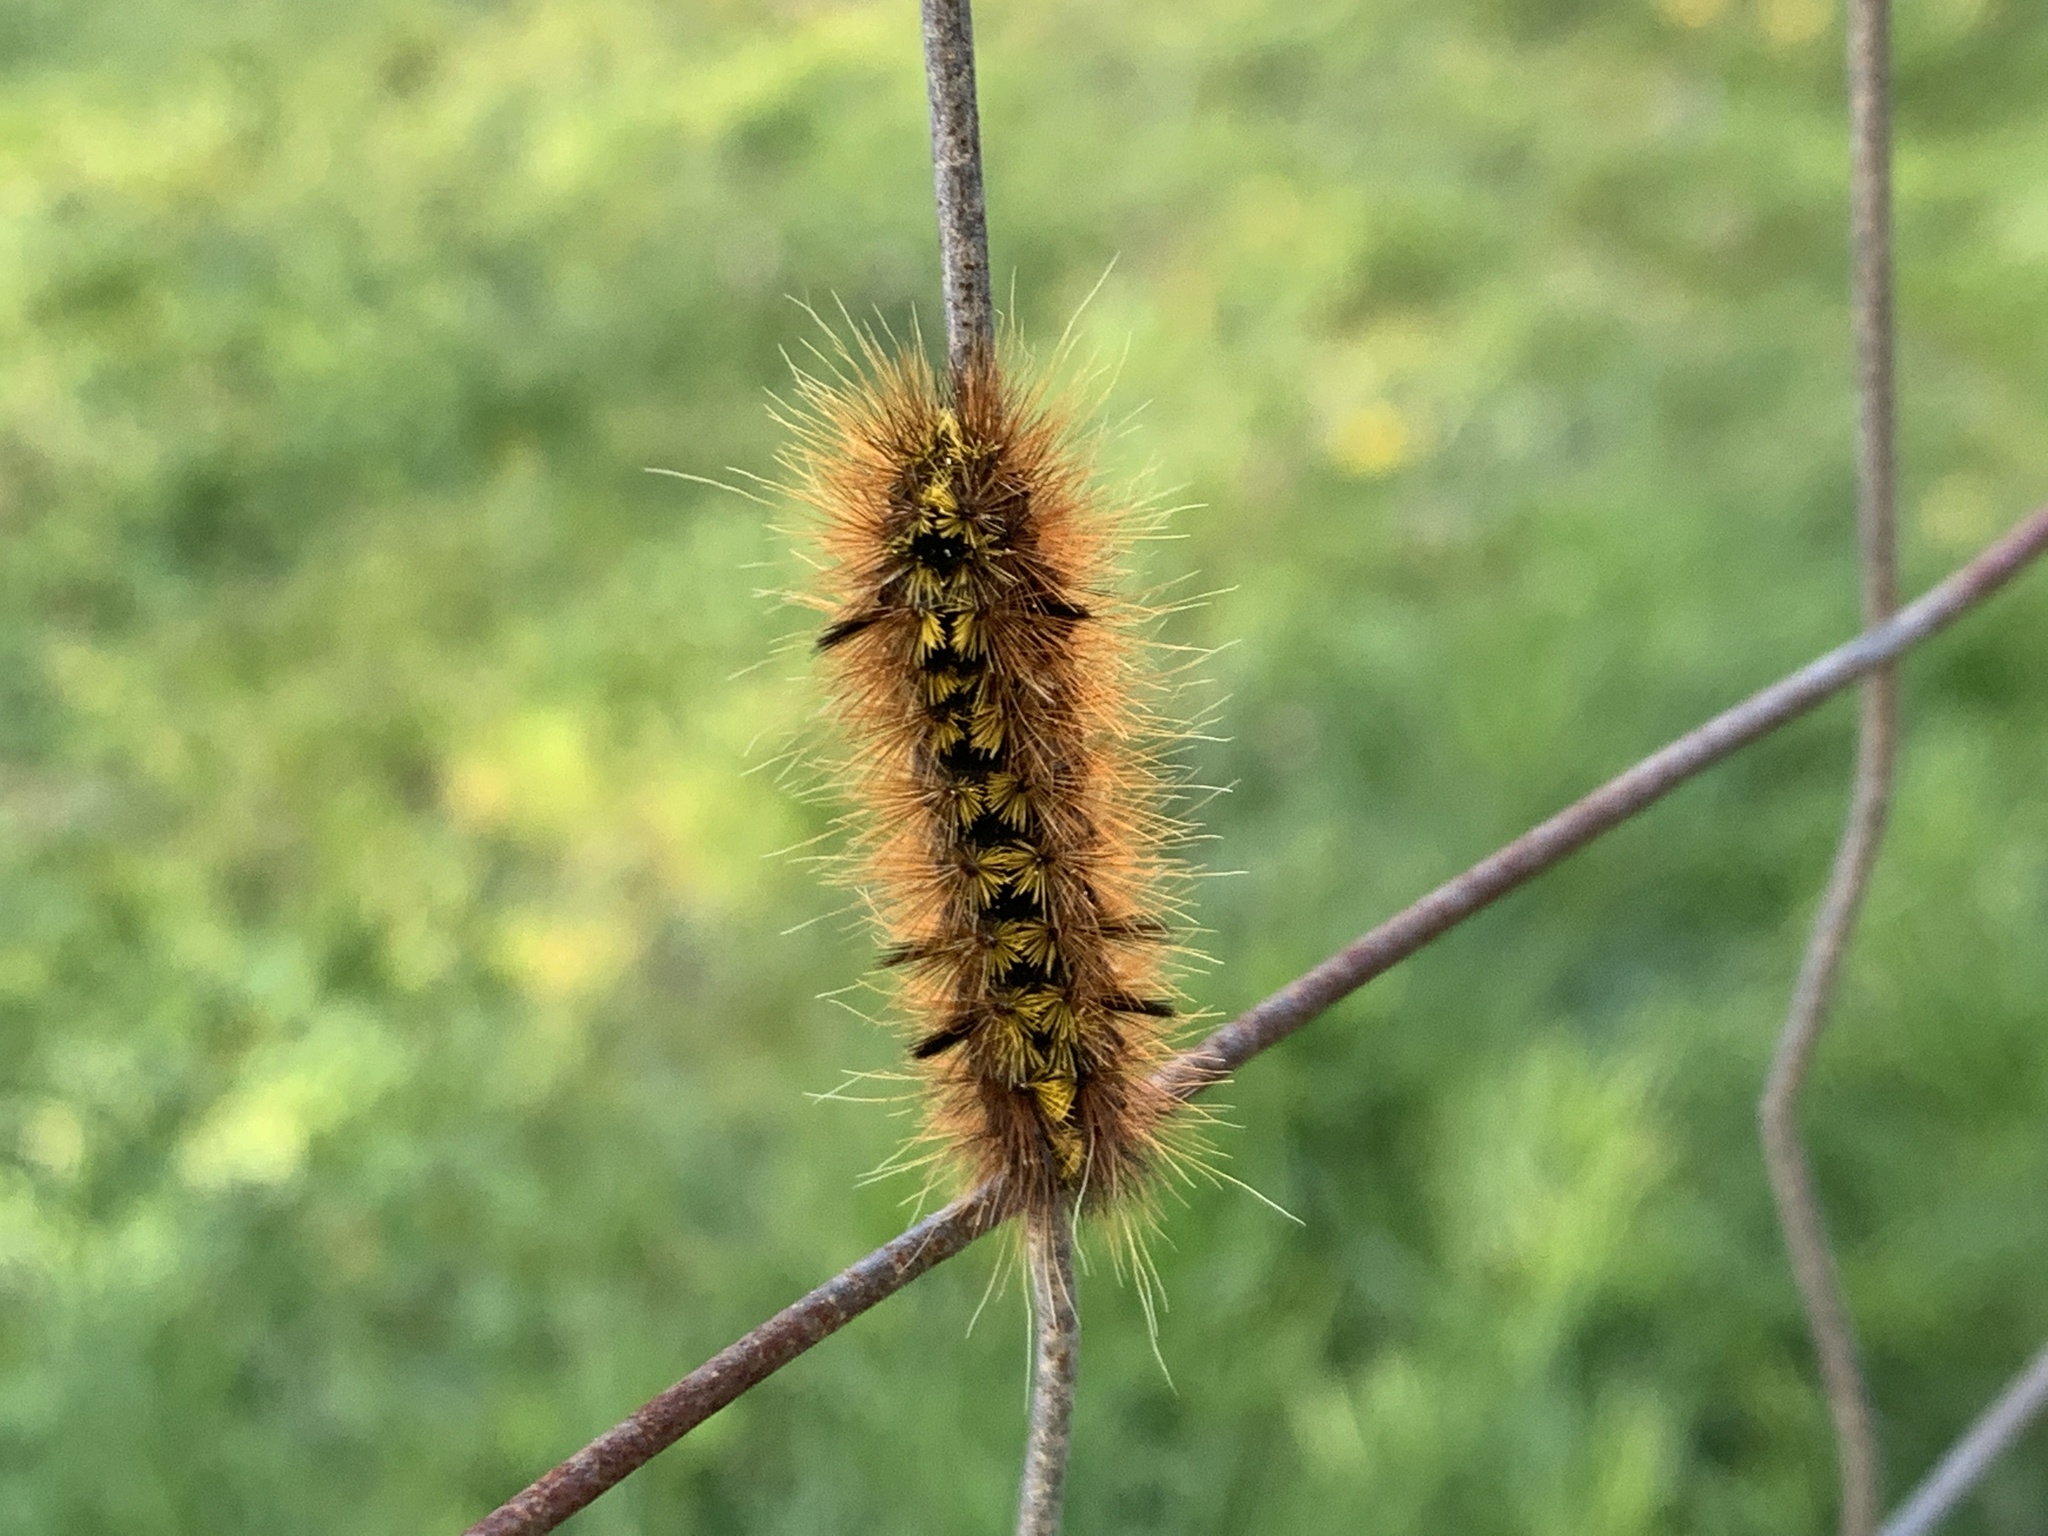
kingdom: Animalia
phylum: Arthropoda
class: Insecta
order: Lepidoptera
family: Erebidae
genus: Lophocampa
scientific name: Lophocampa argentata
